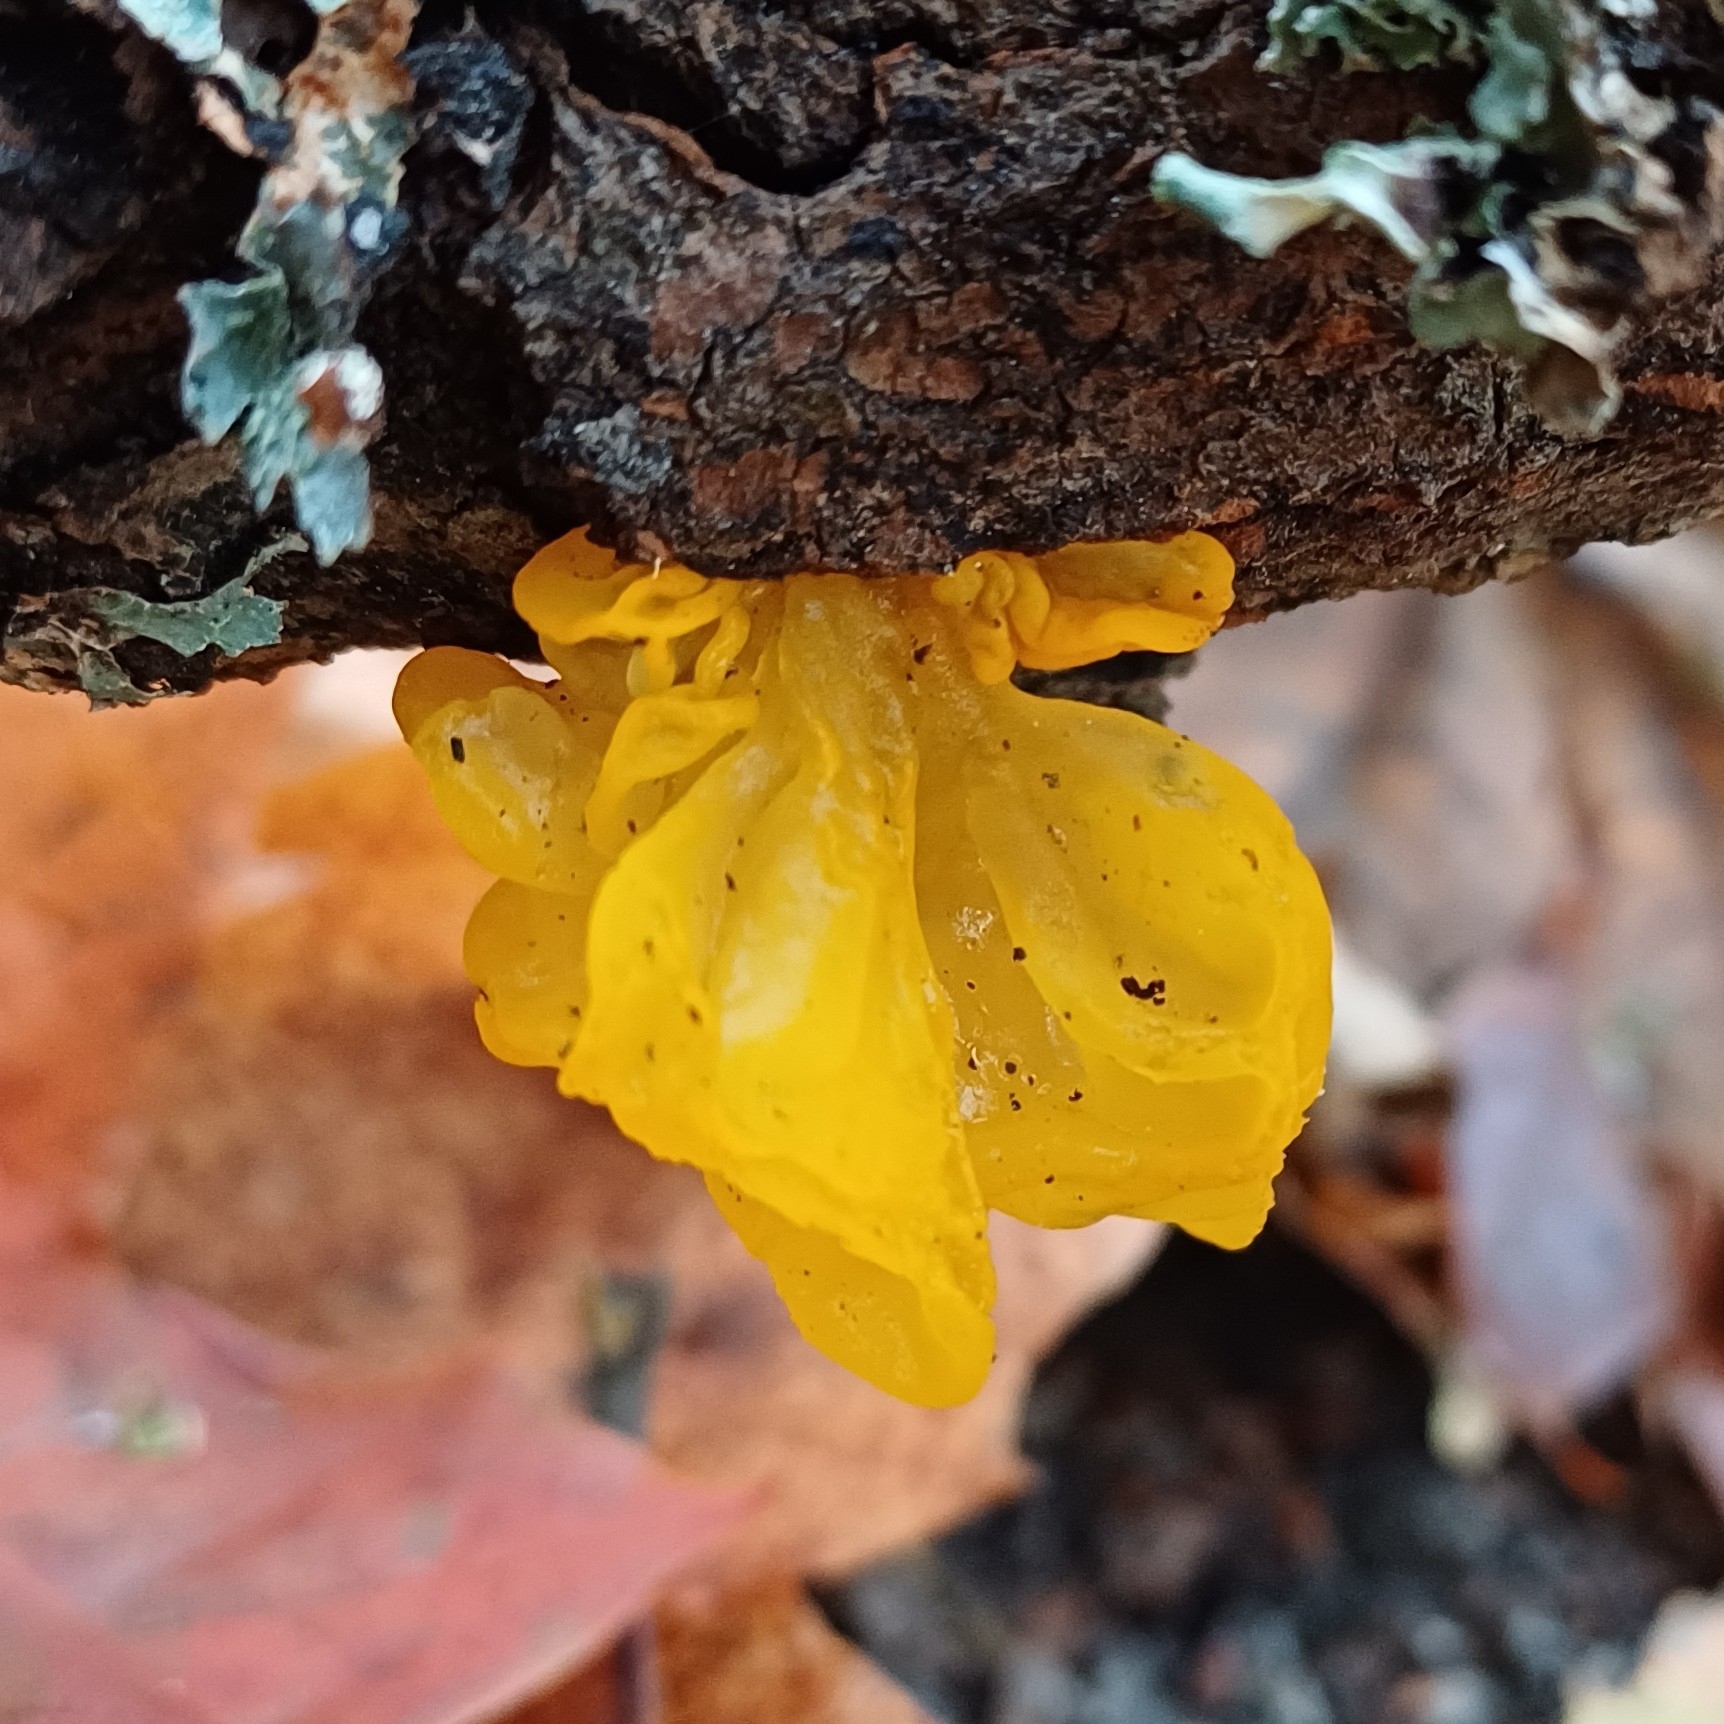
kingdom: Fungi
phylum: Basidiomycota
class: Tremellomycetes
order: Tremellales
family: Tremellaceae
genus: Tremella
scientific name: Tremella mesenterica
